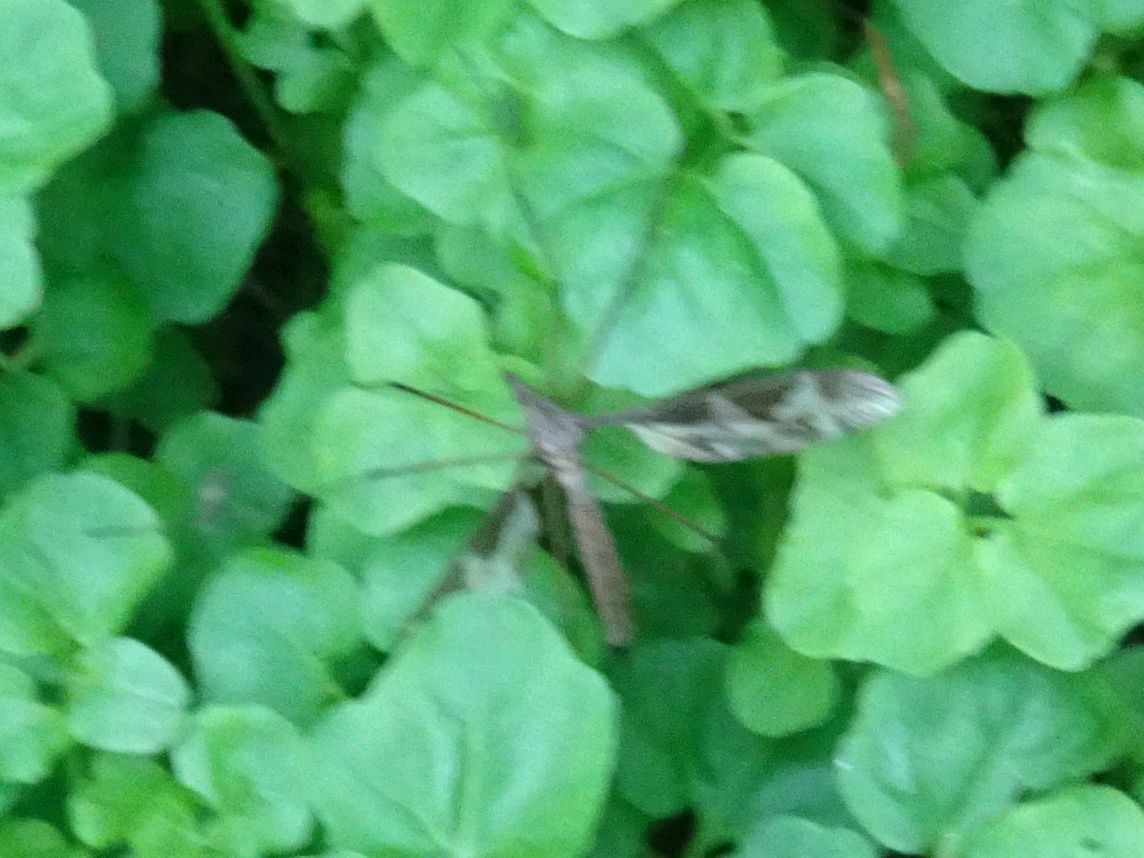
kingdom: Animalia
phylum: Arthropoda
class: Insecta
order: Diptera
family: Tipulidae
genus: Tipula
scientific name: Tipula maxima
